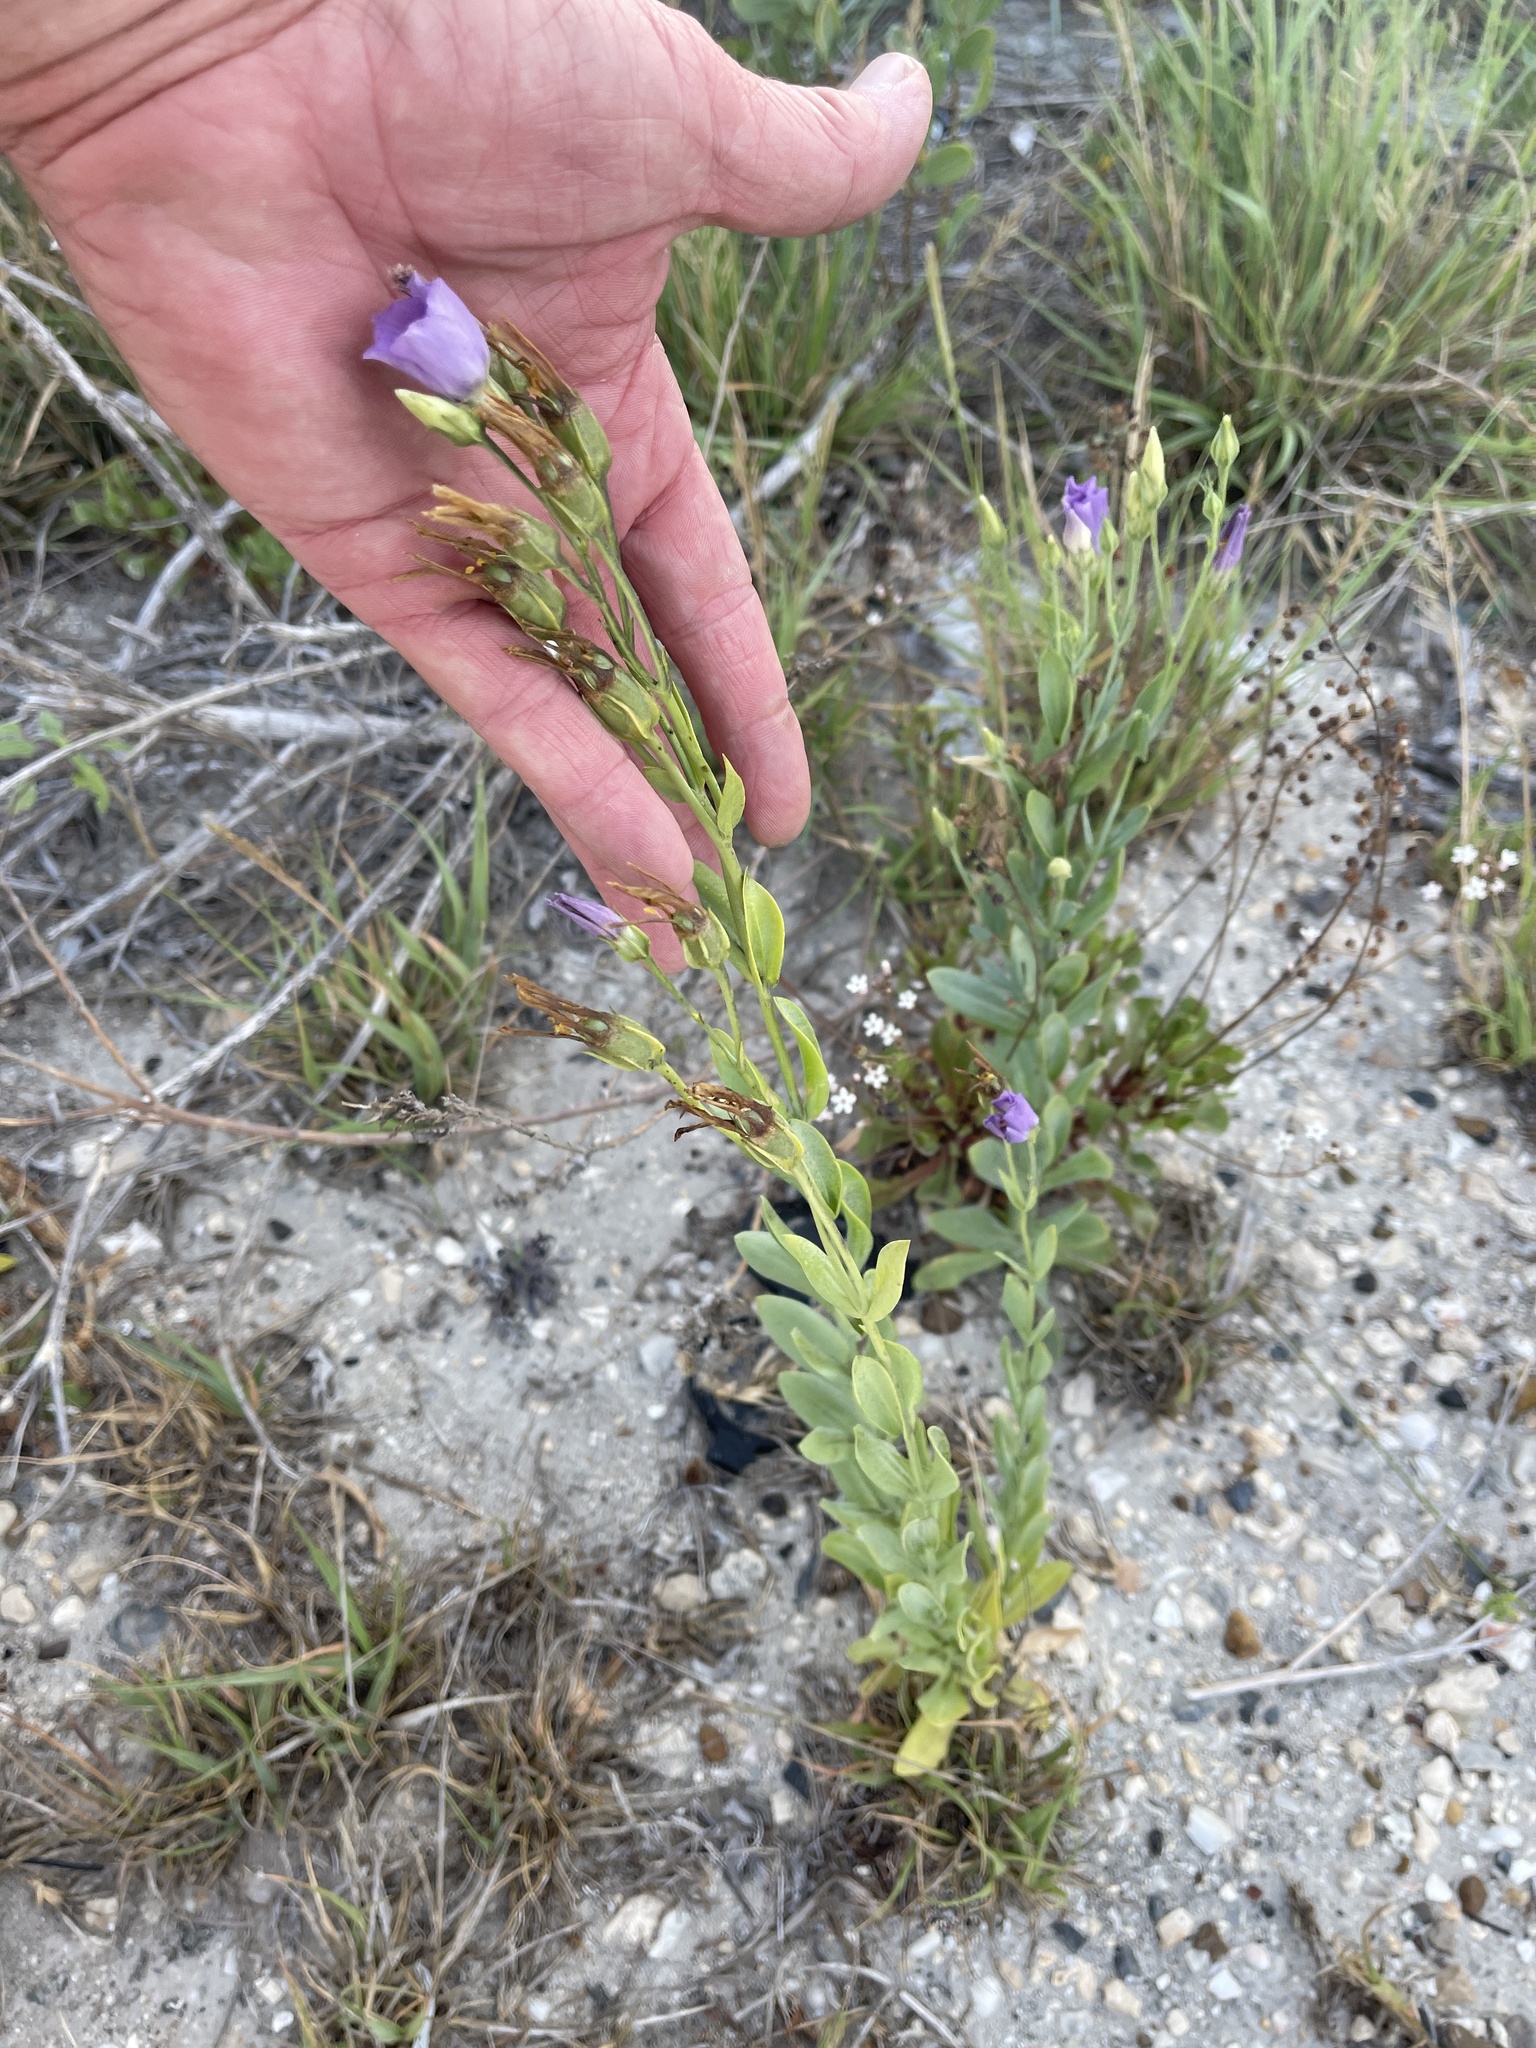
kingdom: Plantae
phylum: Tracheophyta
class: Magnoliopsida
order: Gentianales
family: Gentianaceae
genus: Eustoma
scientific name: Eustoma exaltatum
